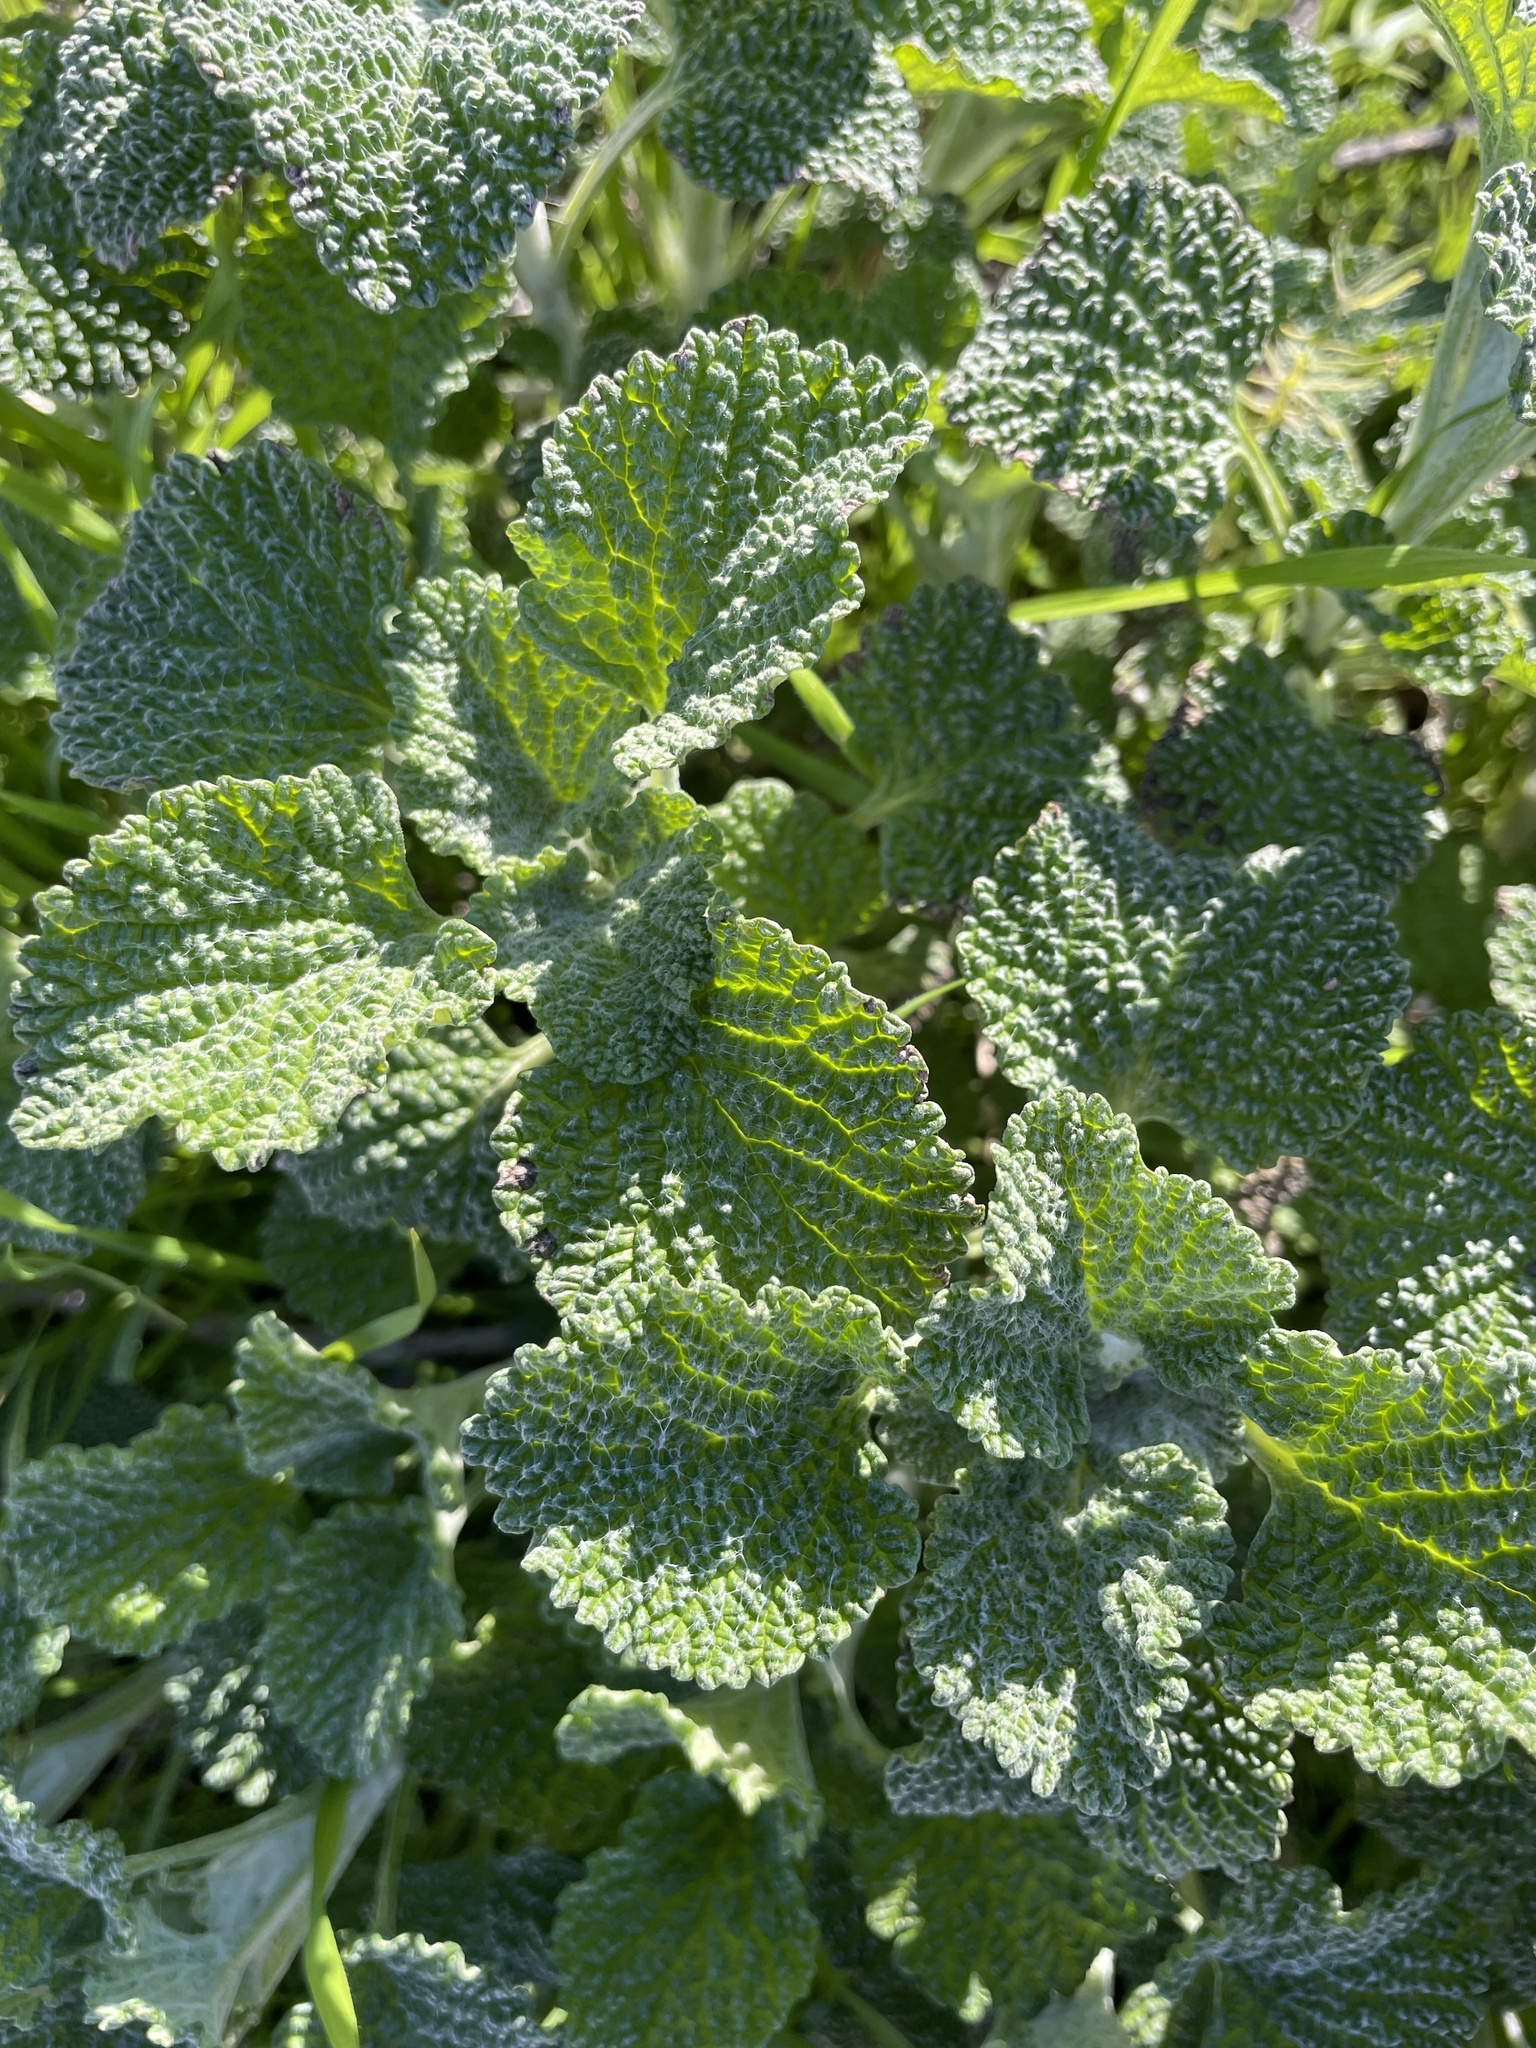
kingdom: Plantae
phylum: Tracheophyta
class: Magnoliopsida
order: Lamiales
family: Lamiaceae
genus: Marrubium
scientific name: Marrubium vulgare
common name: Horehound
